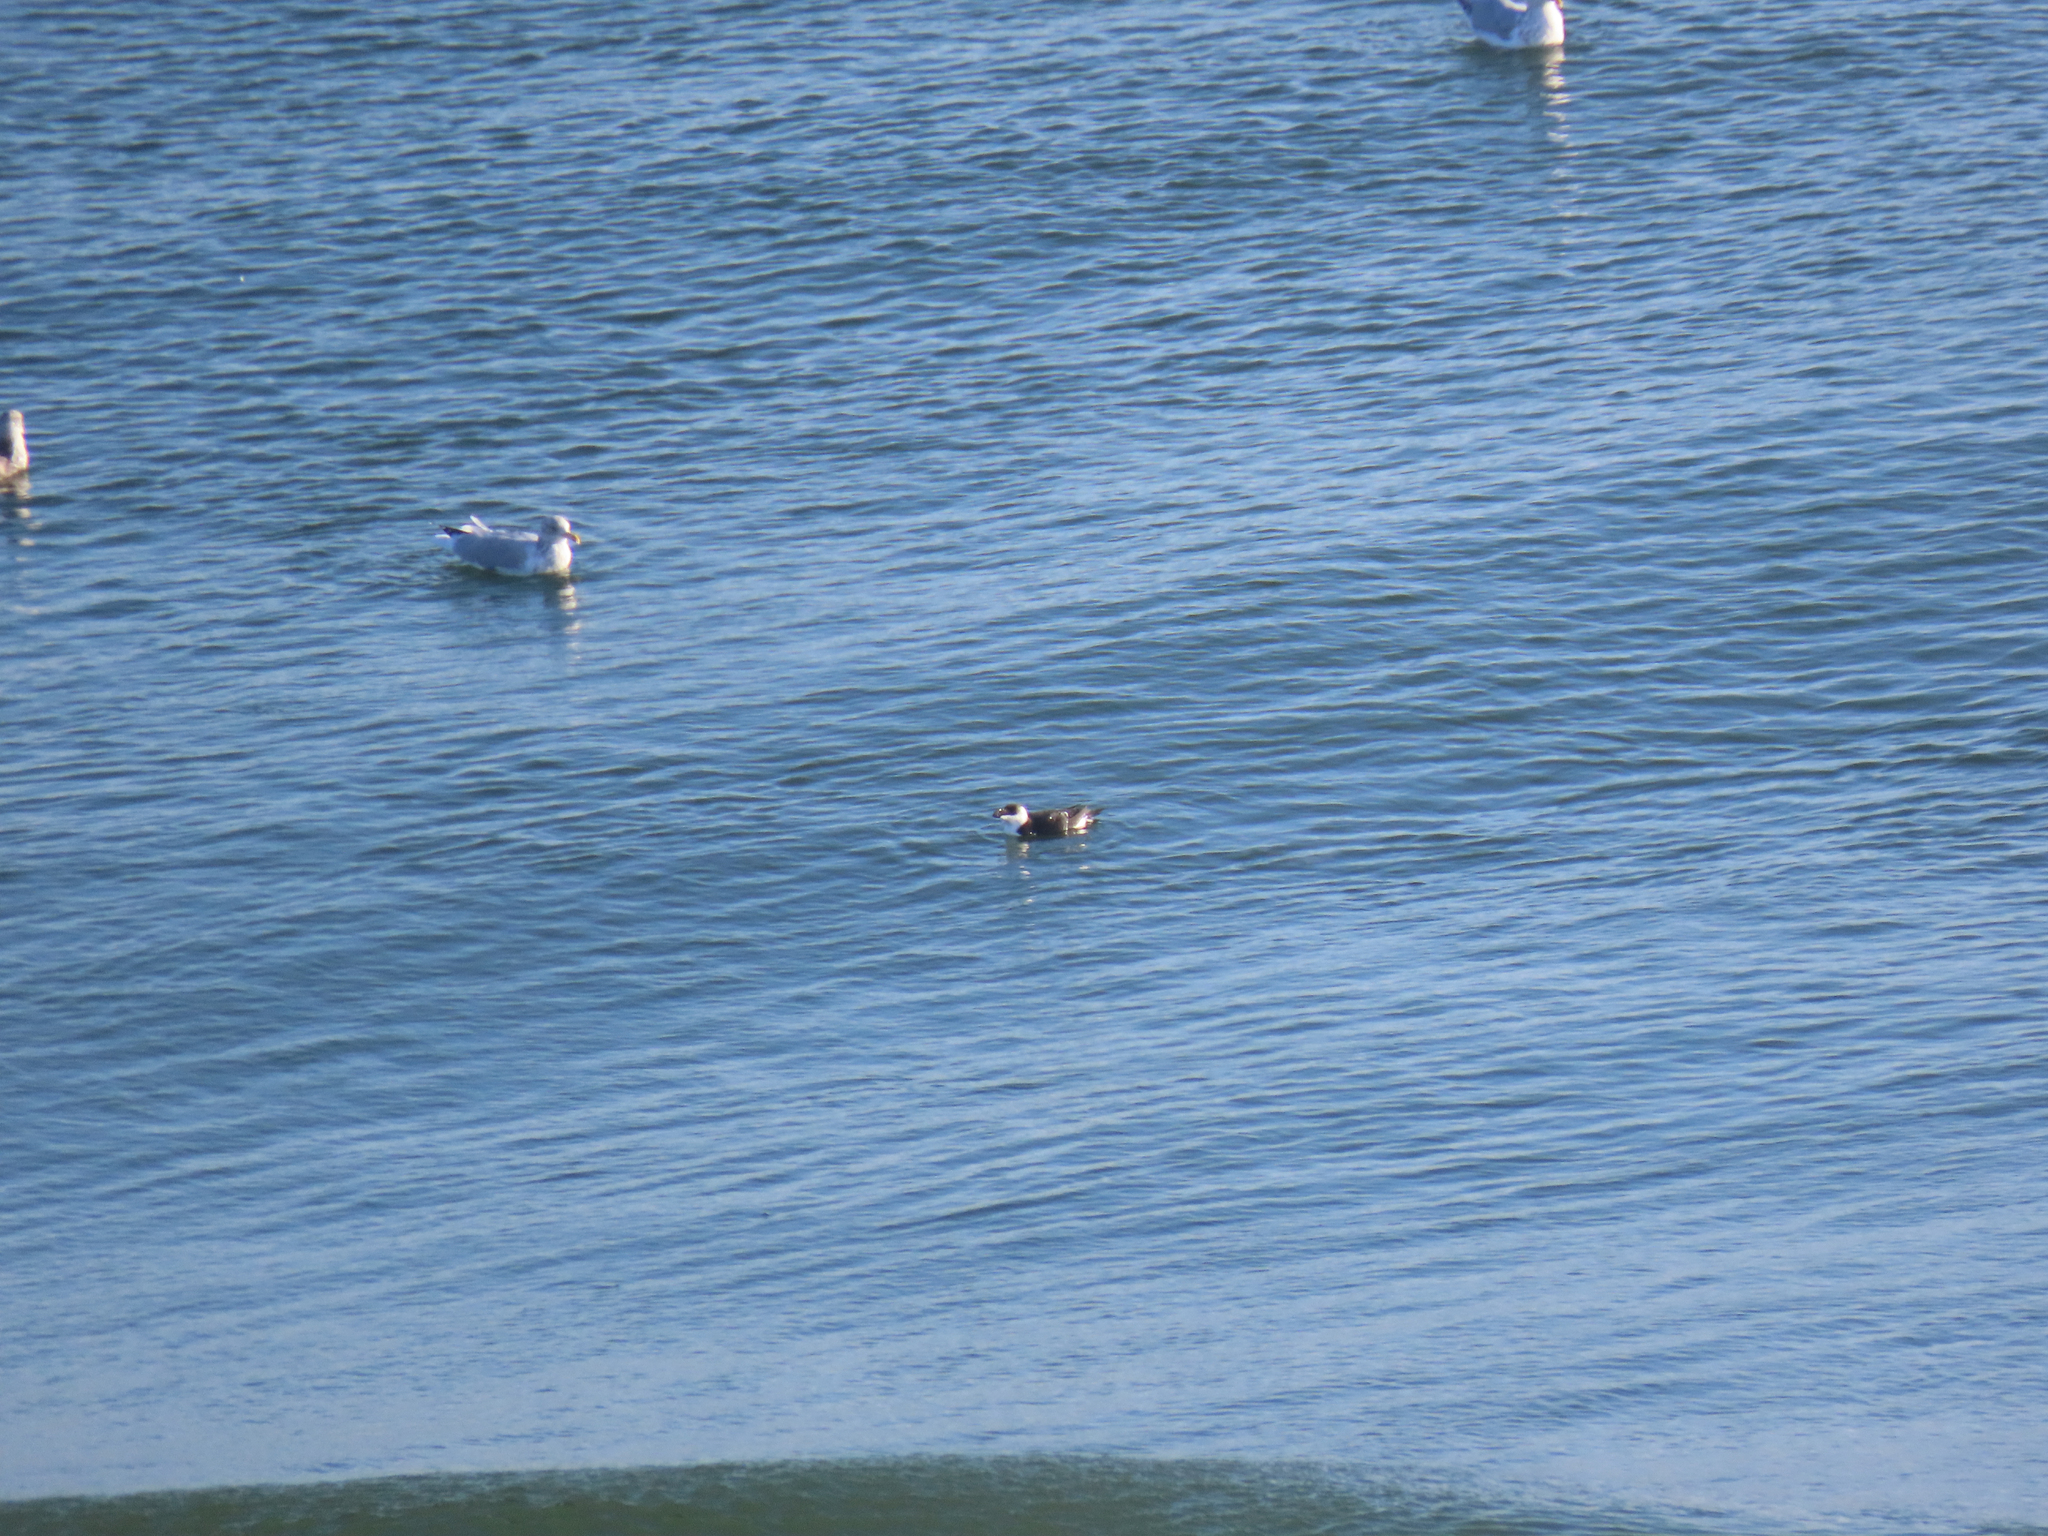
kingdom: Animalia
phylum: Chordata
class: Aves
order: Charadriiformes
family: Alcidae
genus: Alca
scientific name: Alca torda
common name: Razorbill
